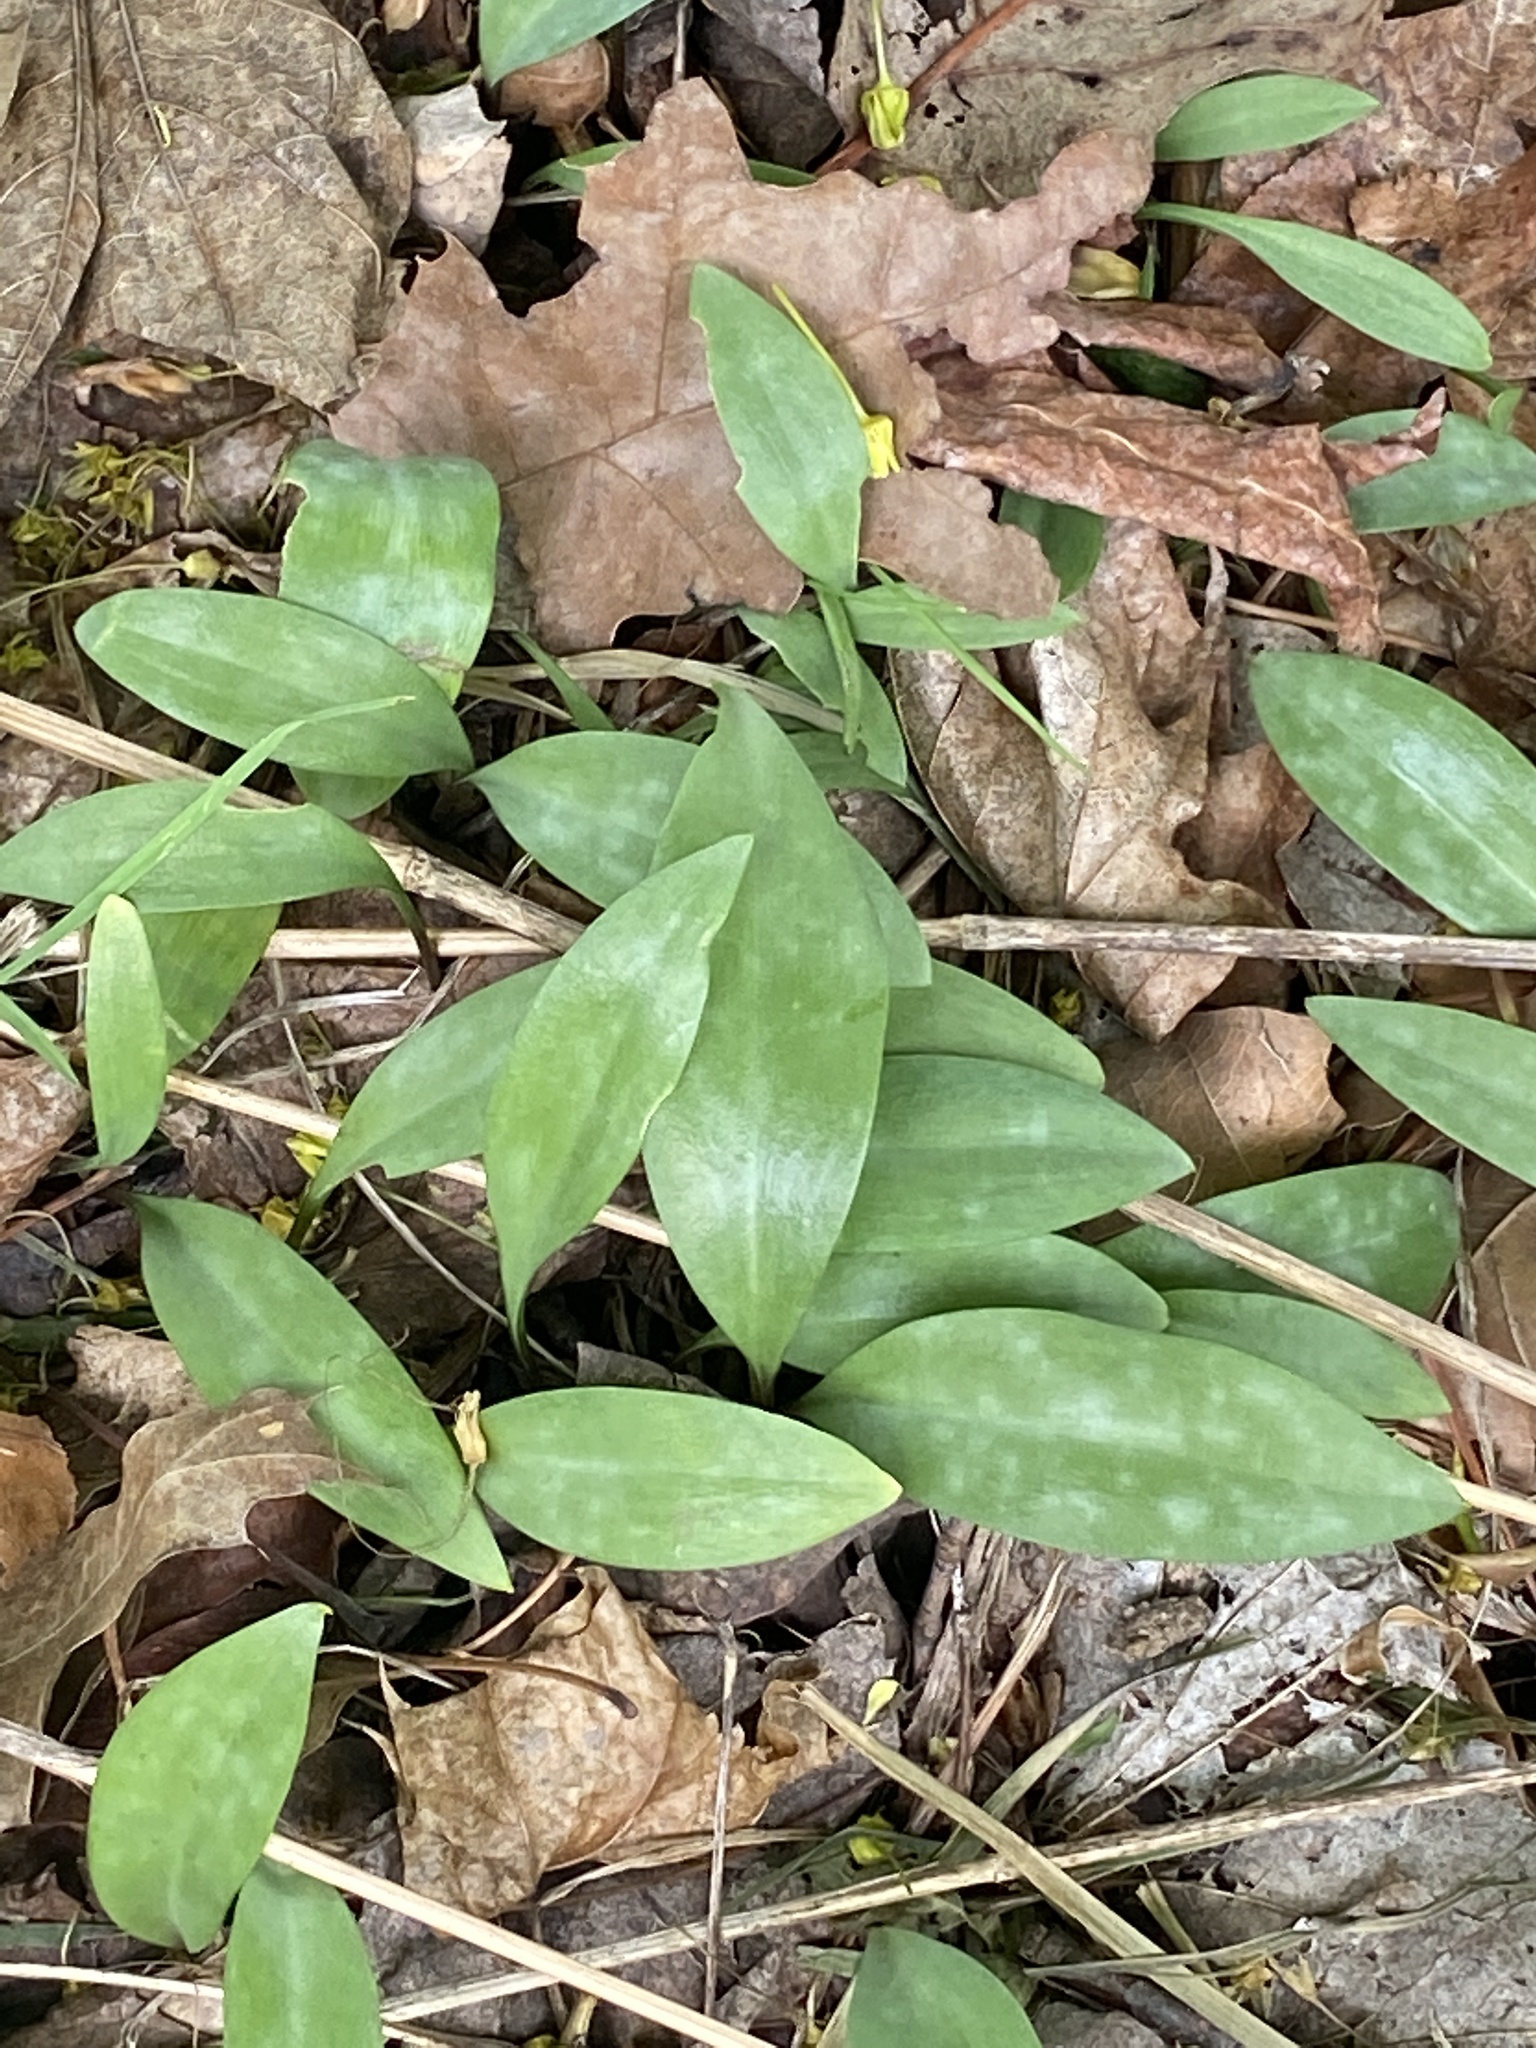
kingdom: Plantae
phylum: Tracheophyta
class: Liliopsida
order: Liliales
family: Liliaceae
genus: Erythronium
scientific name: Erythronium americanum
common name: Yellow adder's-tongue
